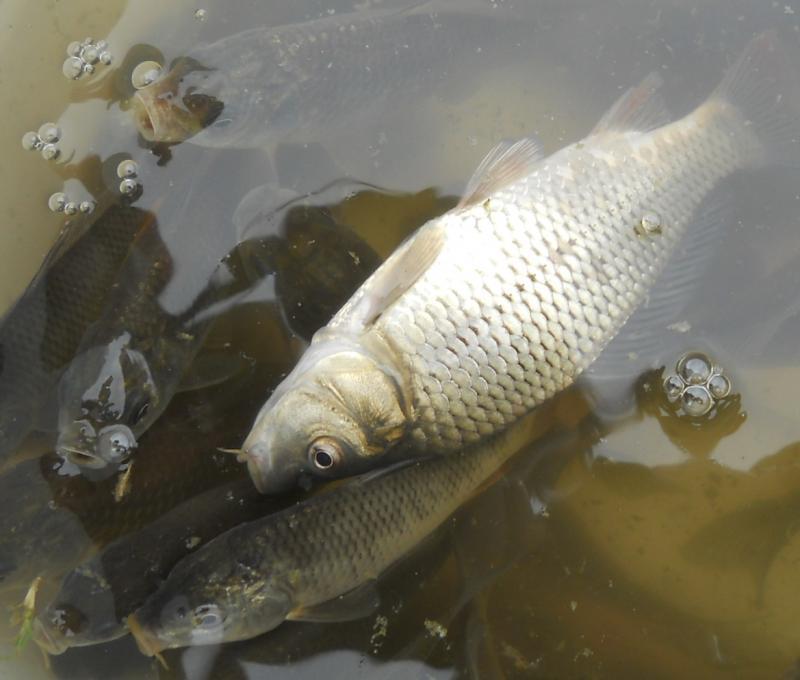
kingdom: Animalia
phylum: Chordata
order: Cypriniformes
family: Cyprinidae
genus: Cyprinus
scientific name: Cyprinus carpio
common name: Common carp
